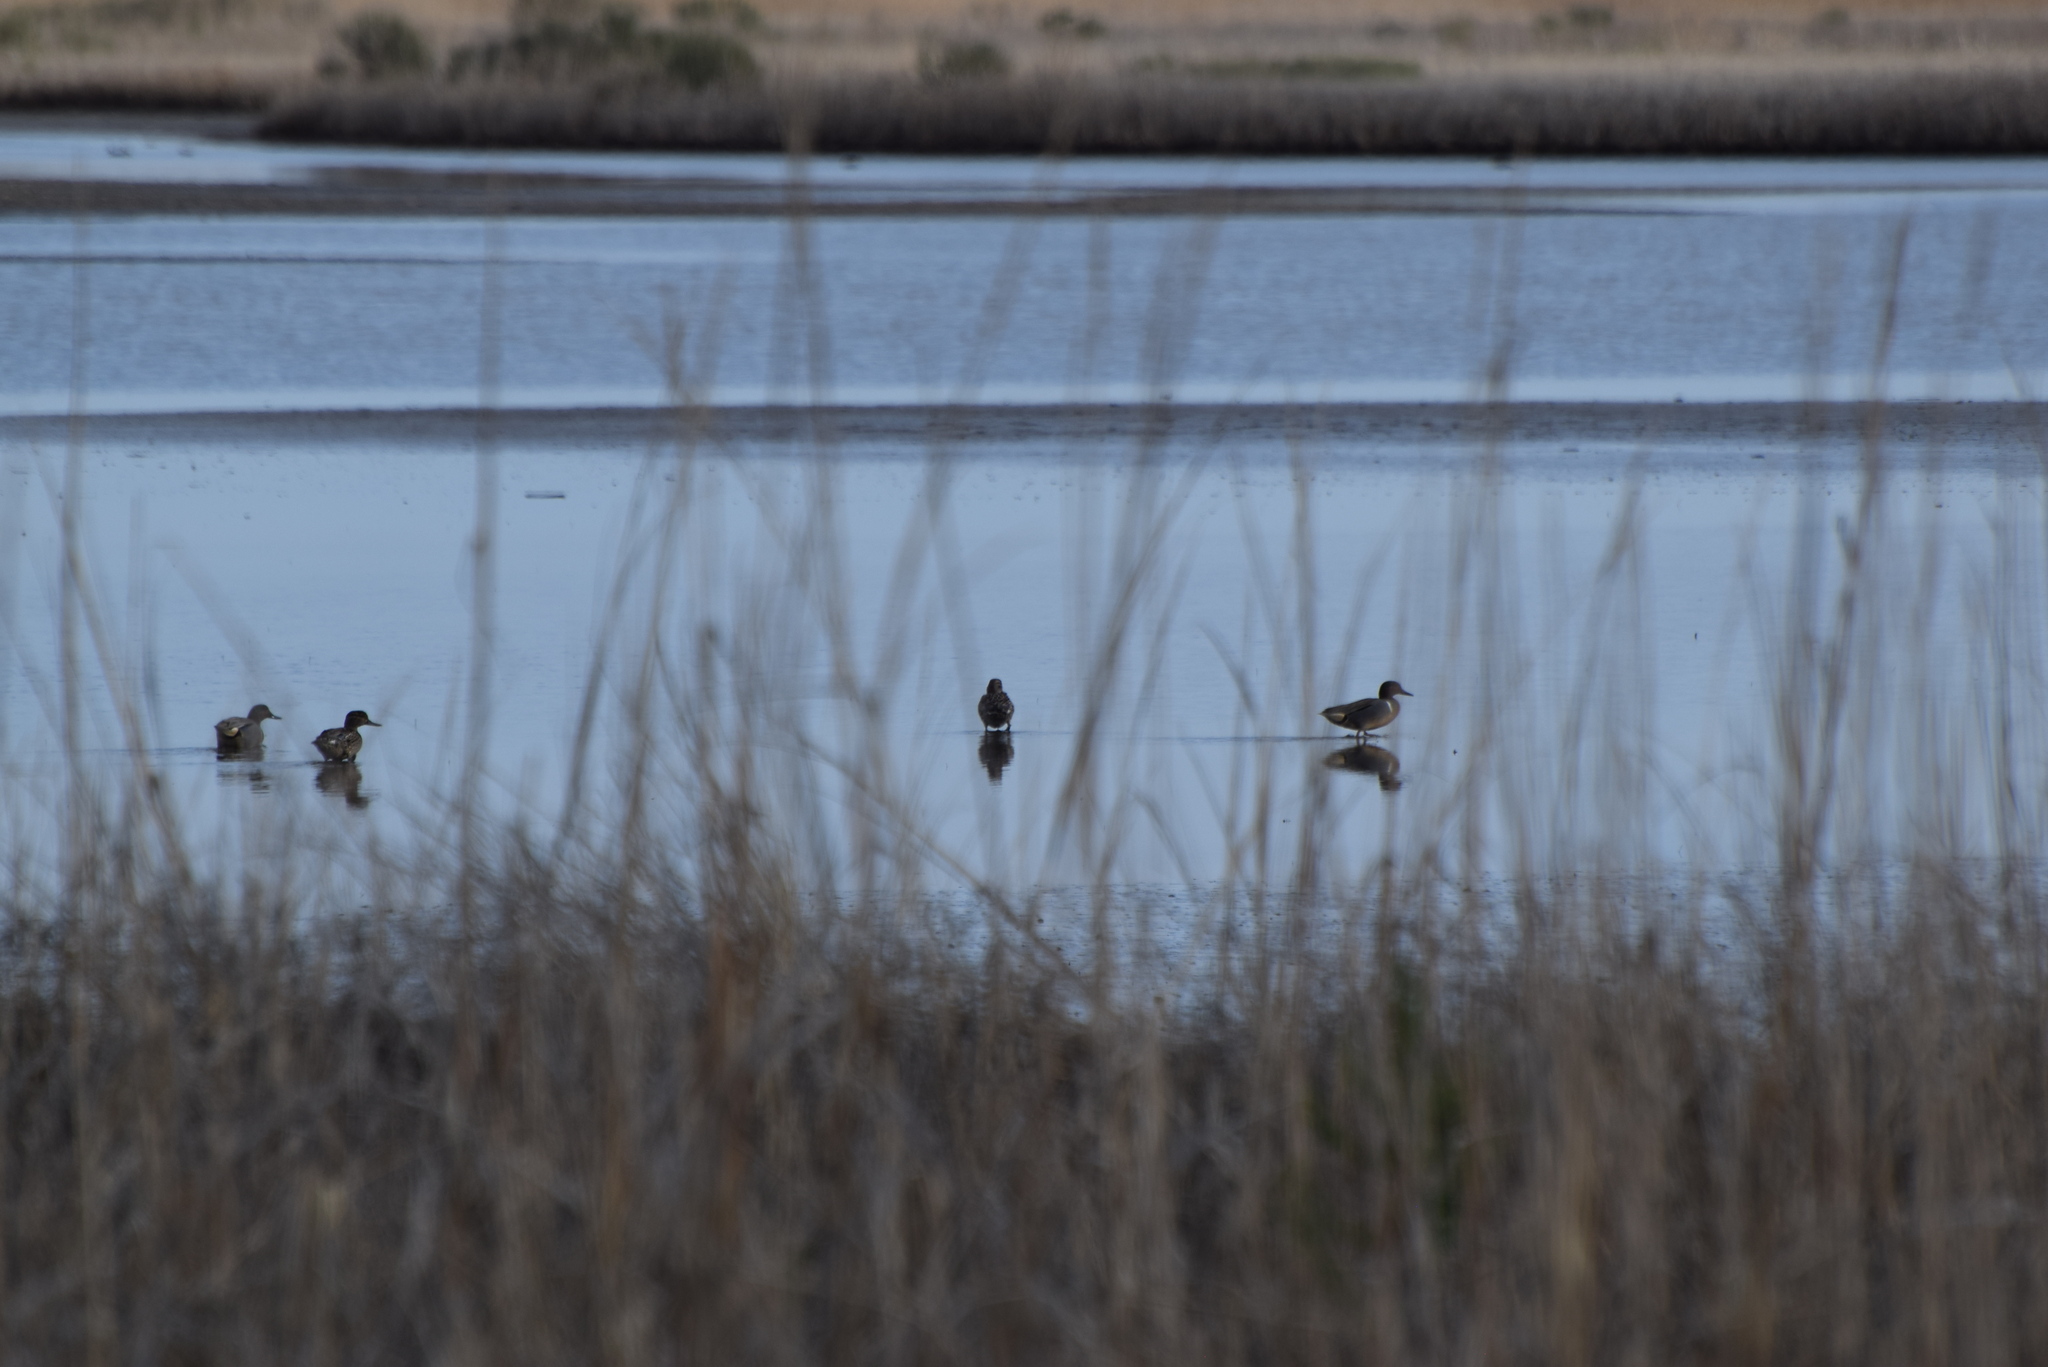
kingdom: Animalia
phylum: Chordata
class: Aves
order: Anseriformes
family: Anatidae
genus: Anas
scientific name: Anas crecca
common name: Eurasian teal
